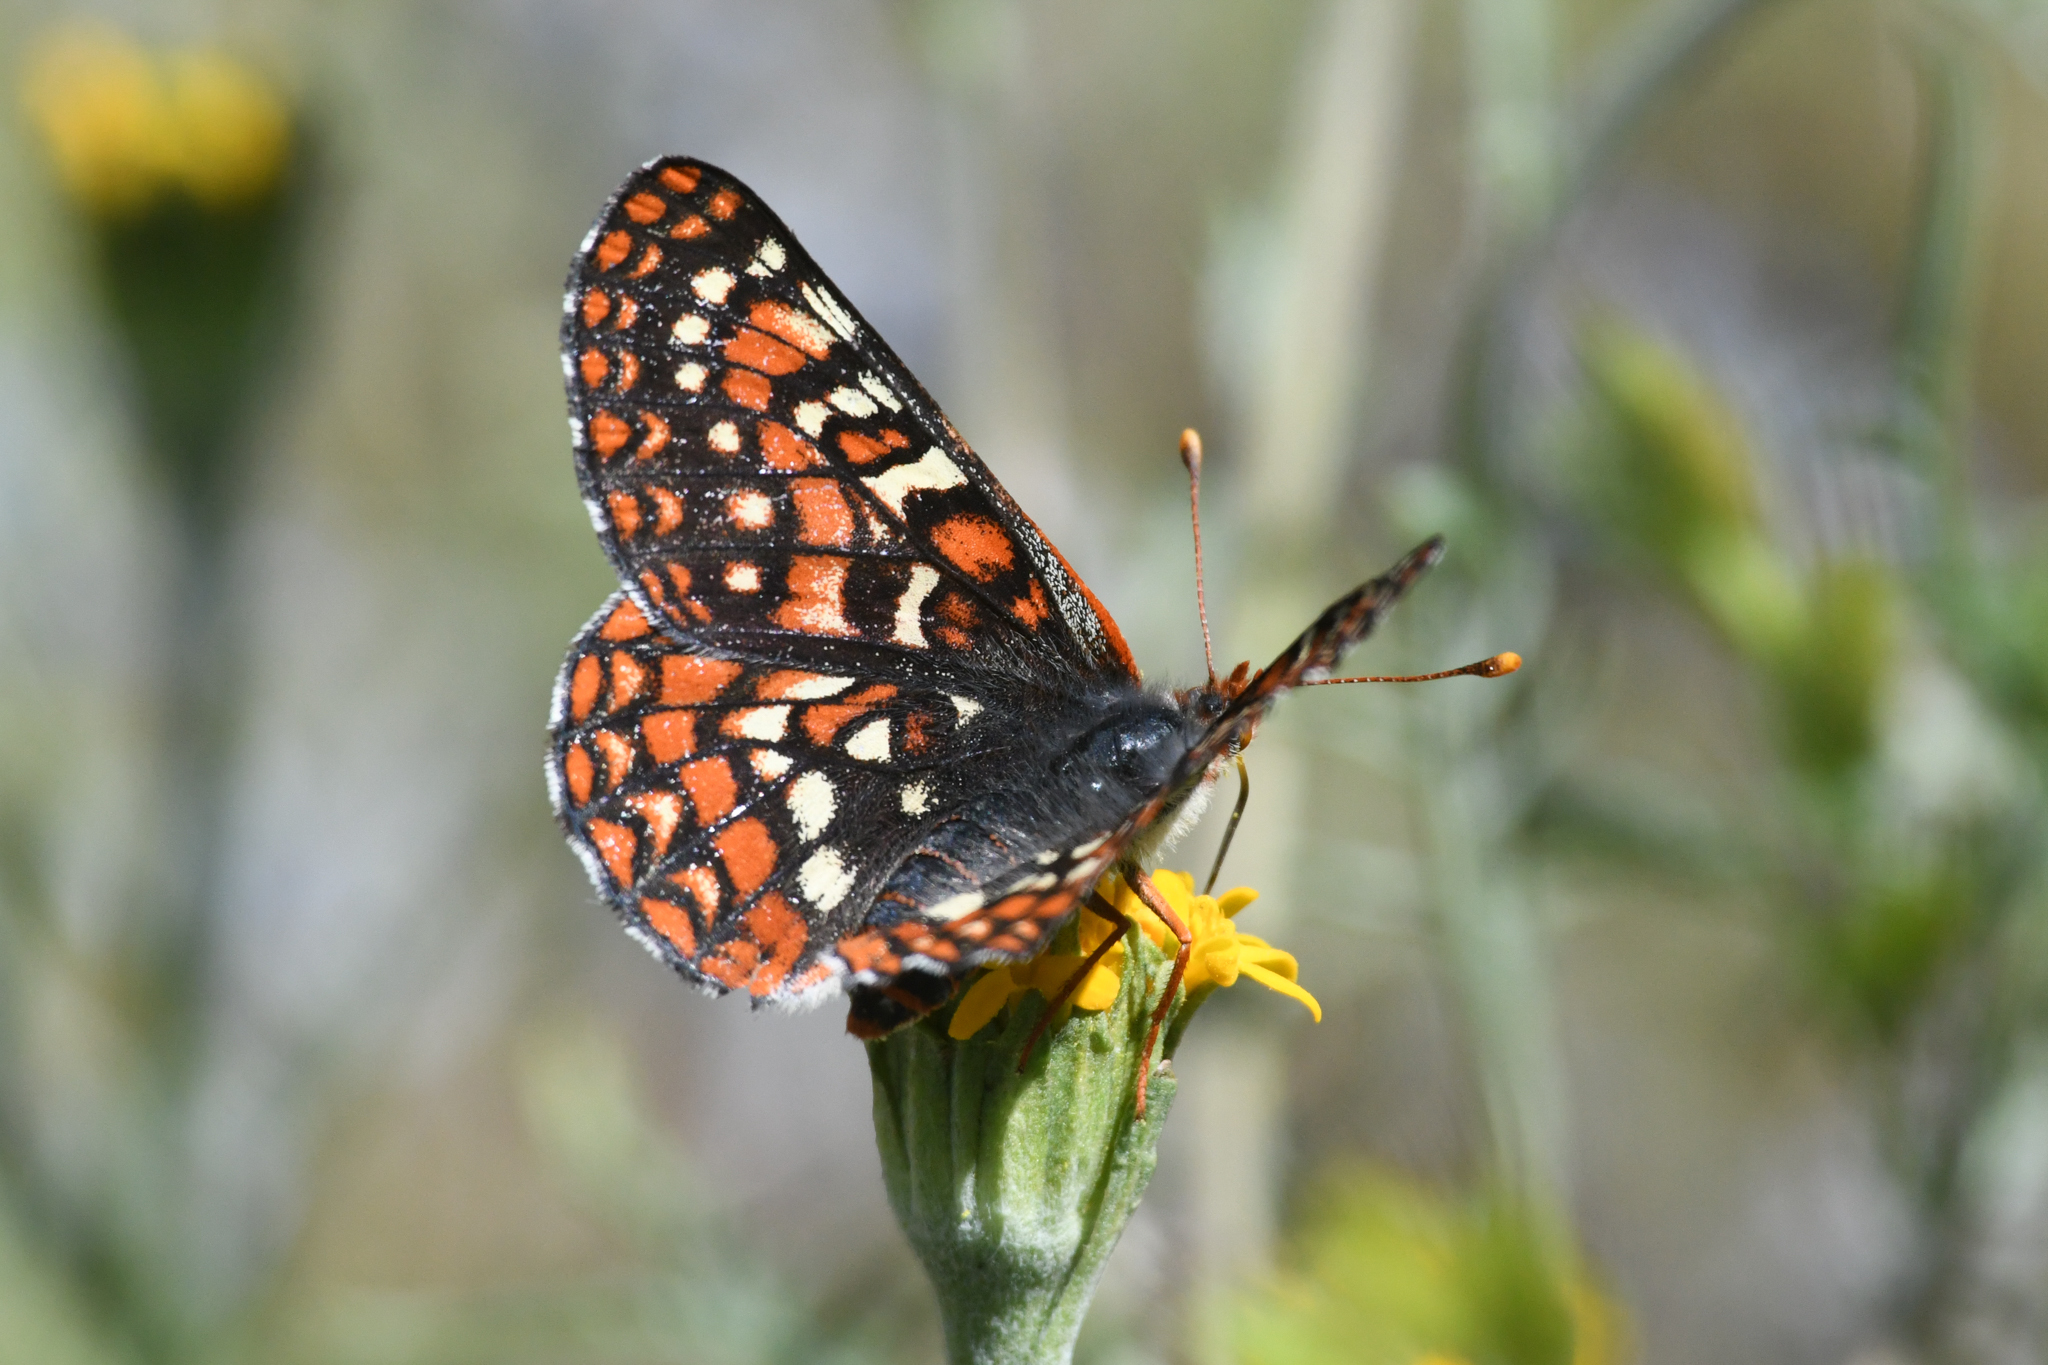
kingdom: Animalia
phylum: Arthropoda
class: Insecta
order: Lepidoptera
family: Nymphalidae
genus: Occidryas
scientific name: Occidryas editha
